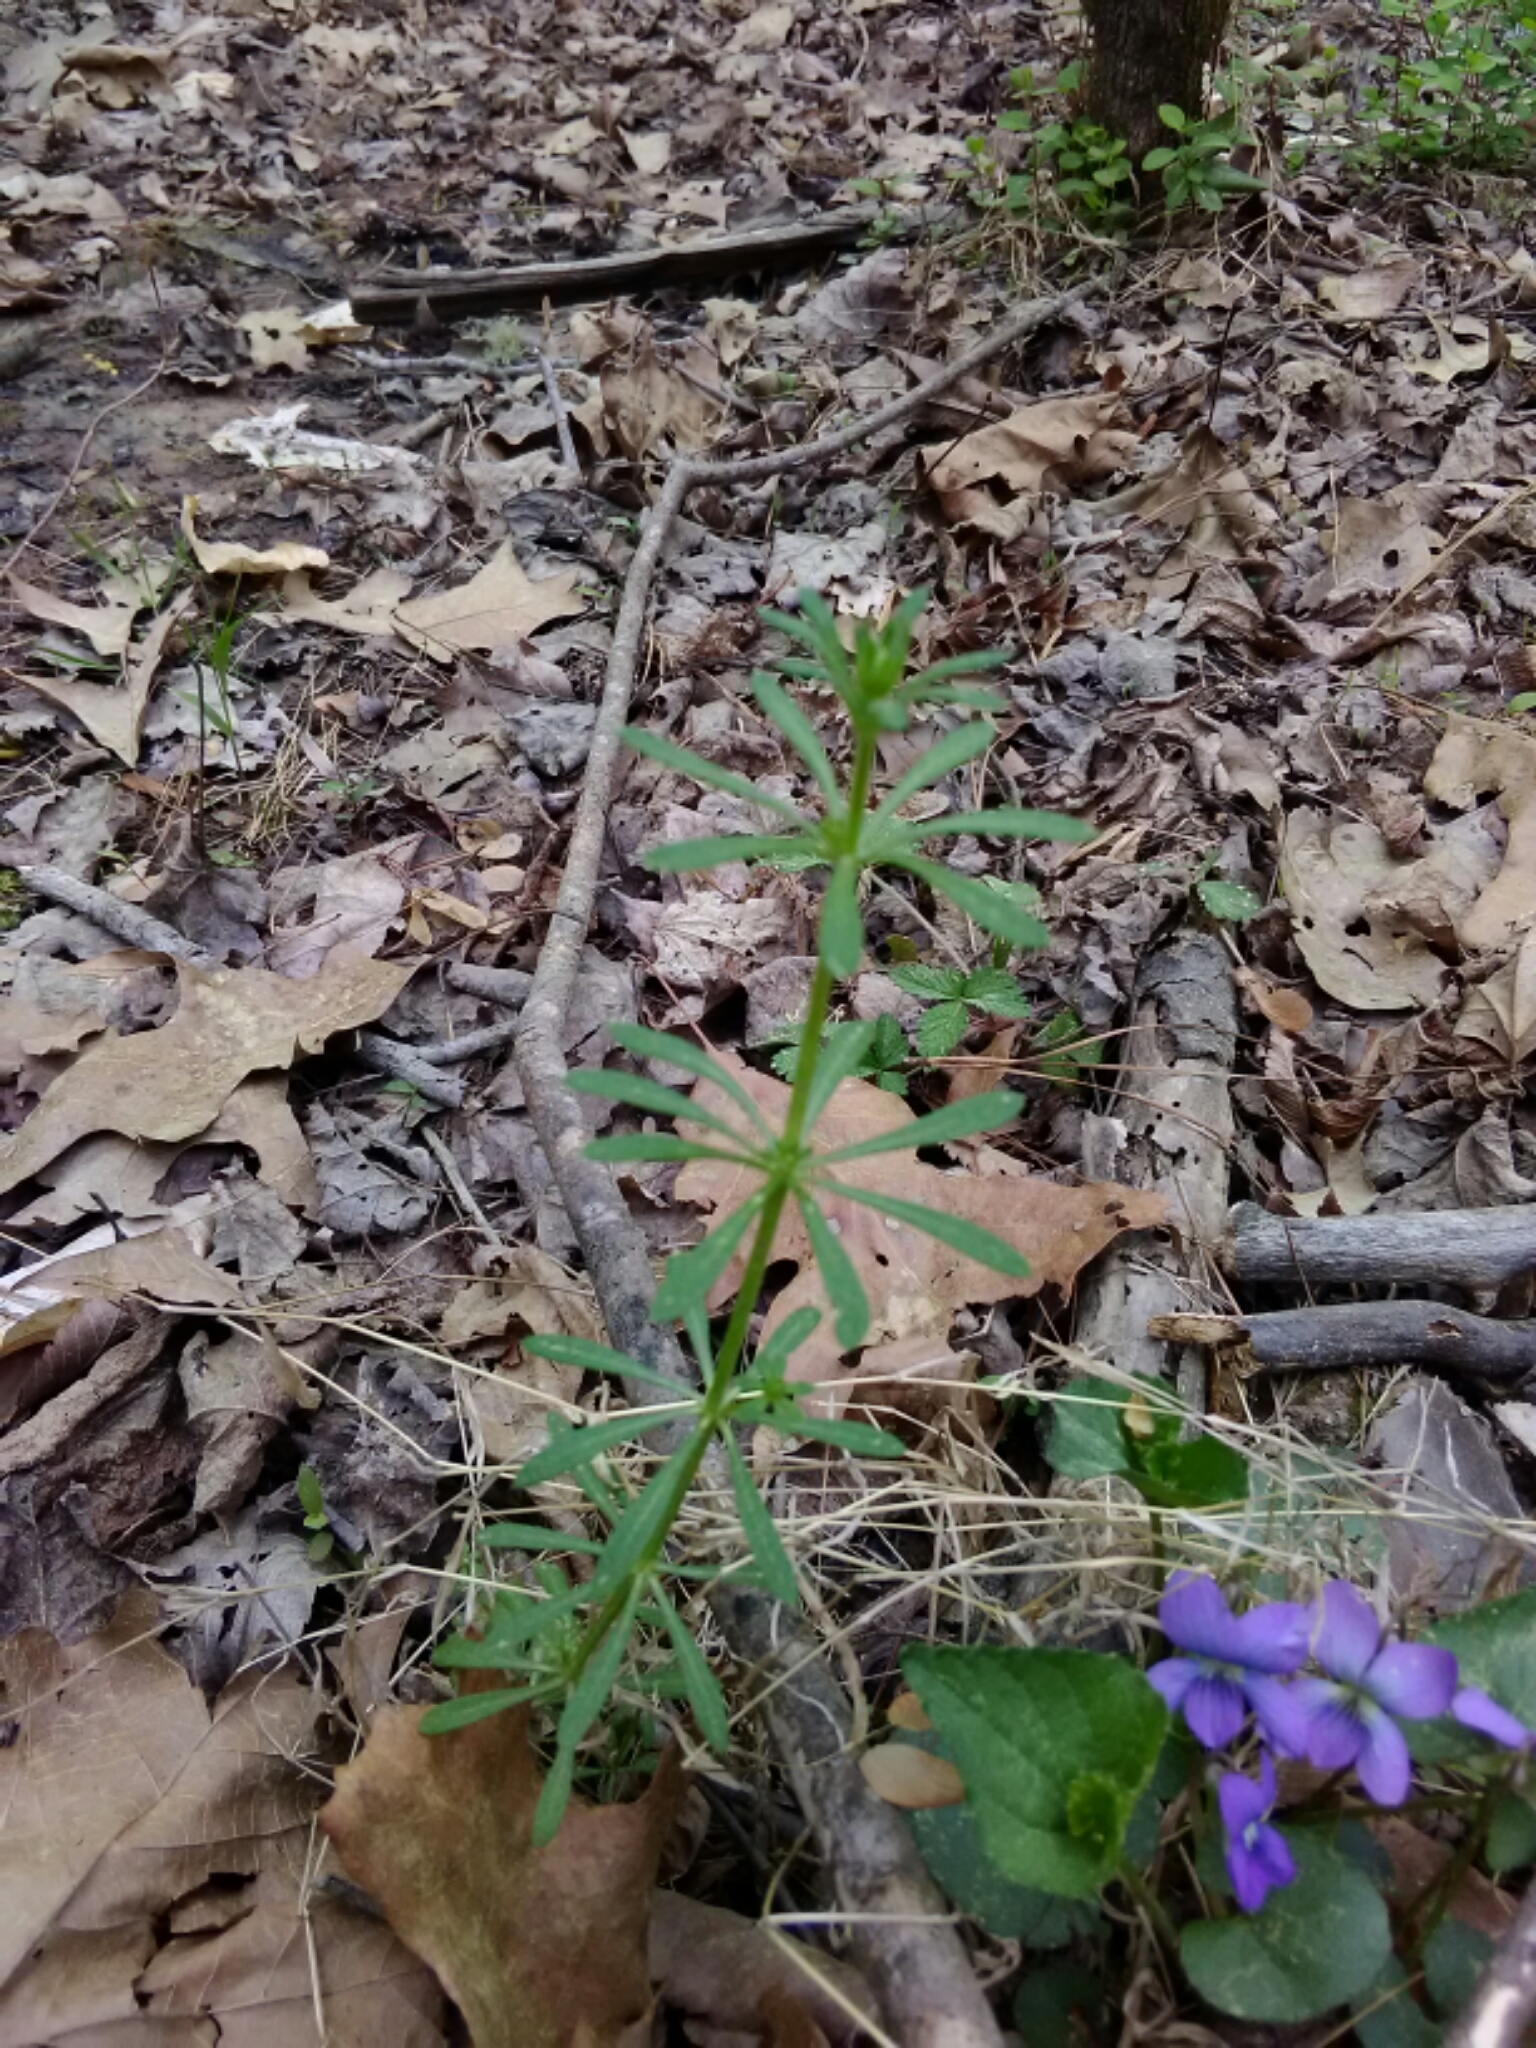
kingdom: Plantae
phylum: Tracheophyta
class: Magnoliopsida
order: Gentianales
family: Rubiaceae
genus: Galium
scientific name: Galium aparine
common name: Cleavers
